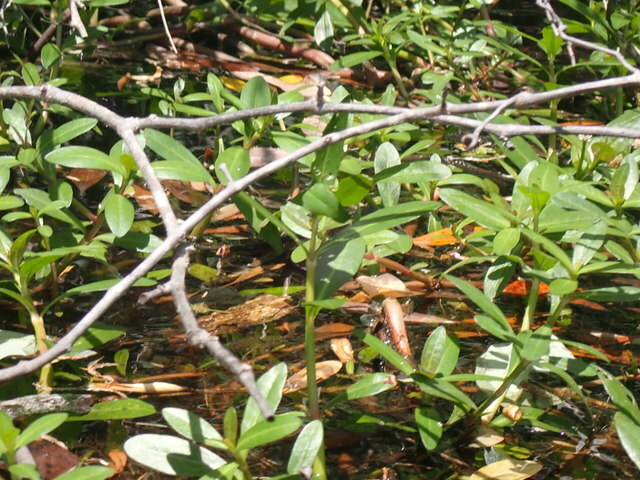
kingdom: Plantae
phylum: Tracheophyta
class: Magnoliopsida
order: Caryophyllales
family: Amaranthaceae
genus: Alternanthera
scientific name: Alternanthera philoxeroides
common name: Alligatorweed
